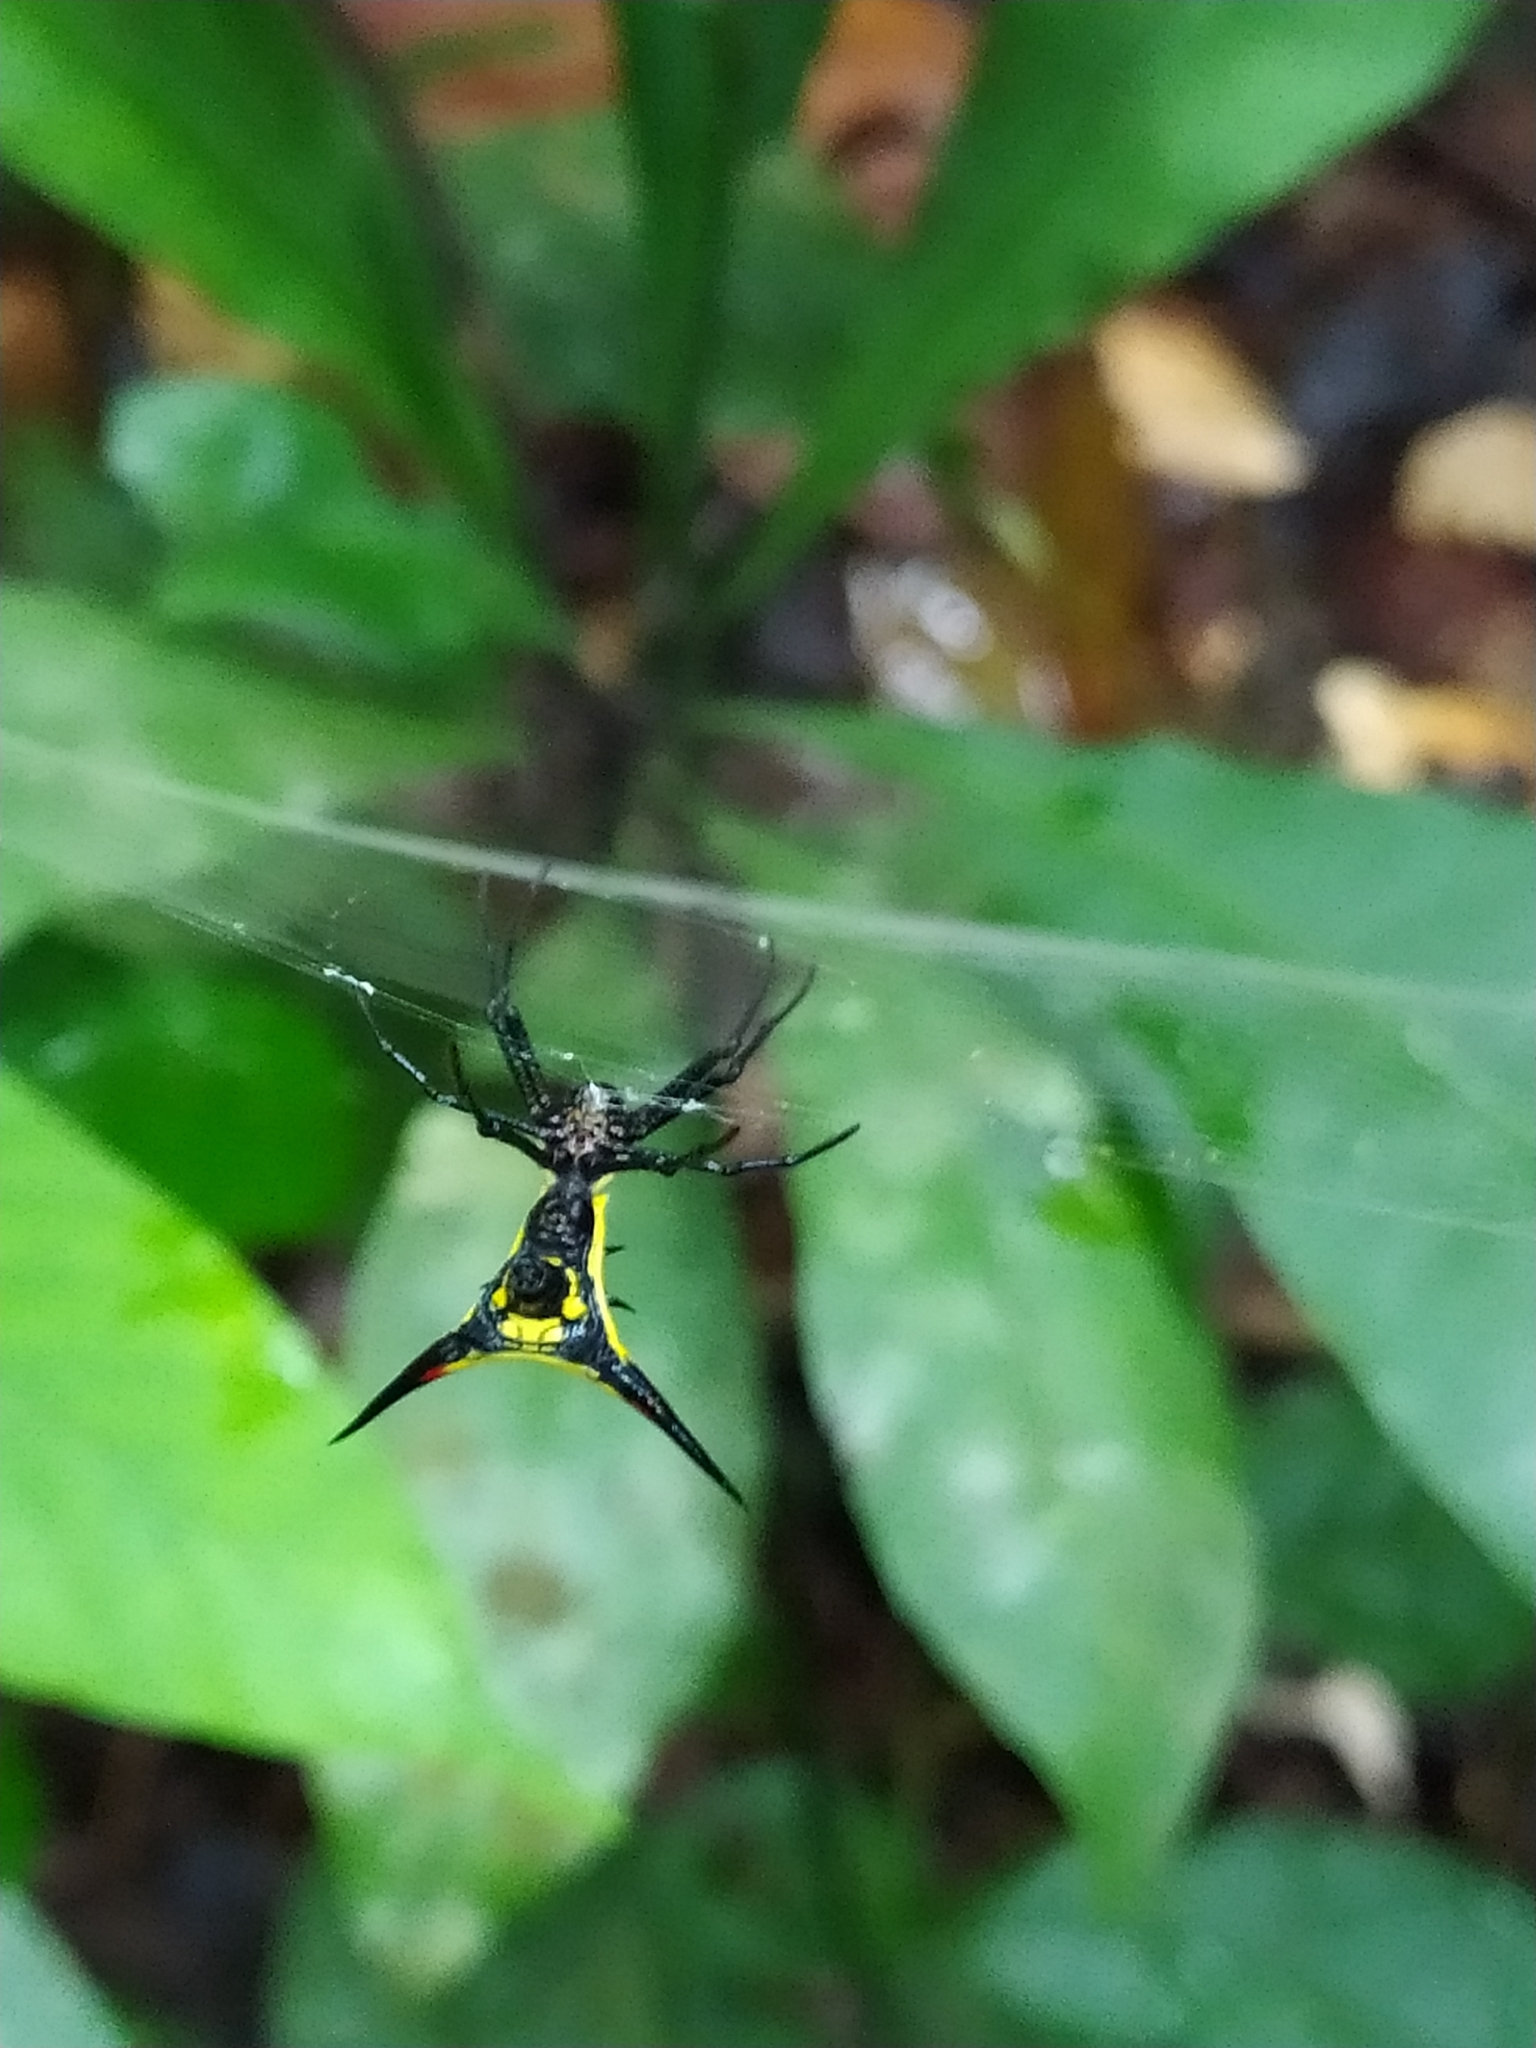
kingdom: Animalia
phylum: Arthropoda
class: Arachnida
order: Araneae
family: Araneidae
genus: Micrathena
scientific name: Micrathena schreibersi
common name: Orb weavers
